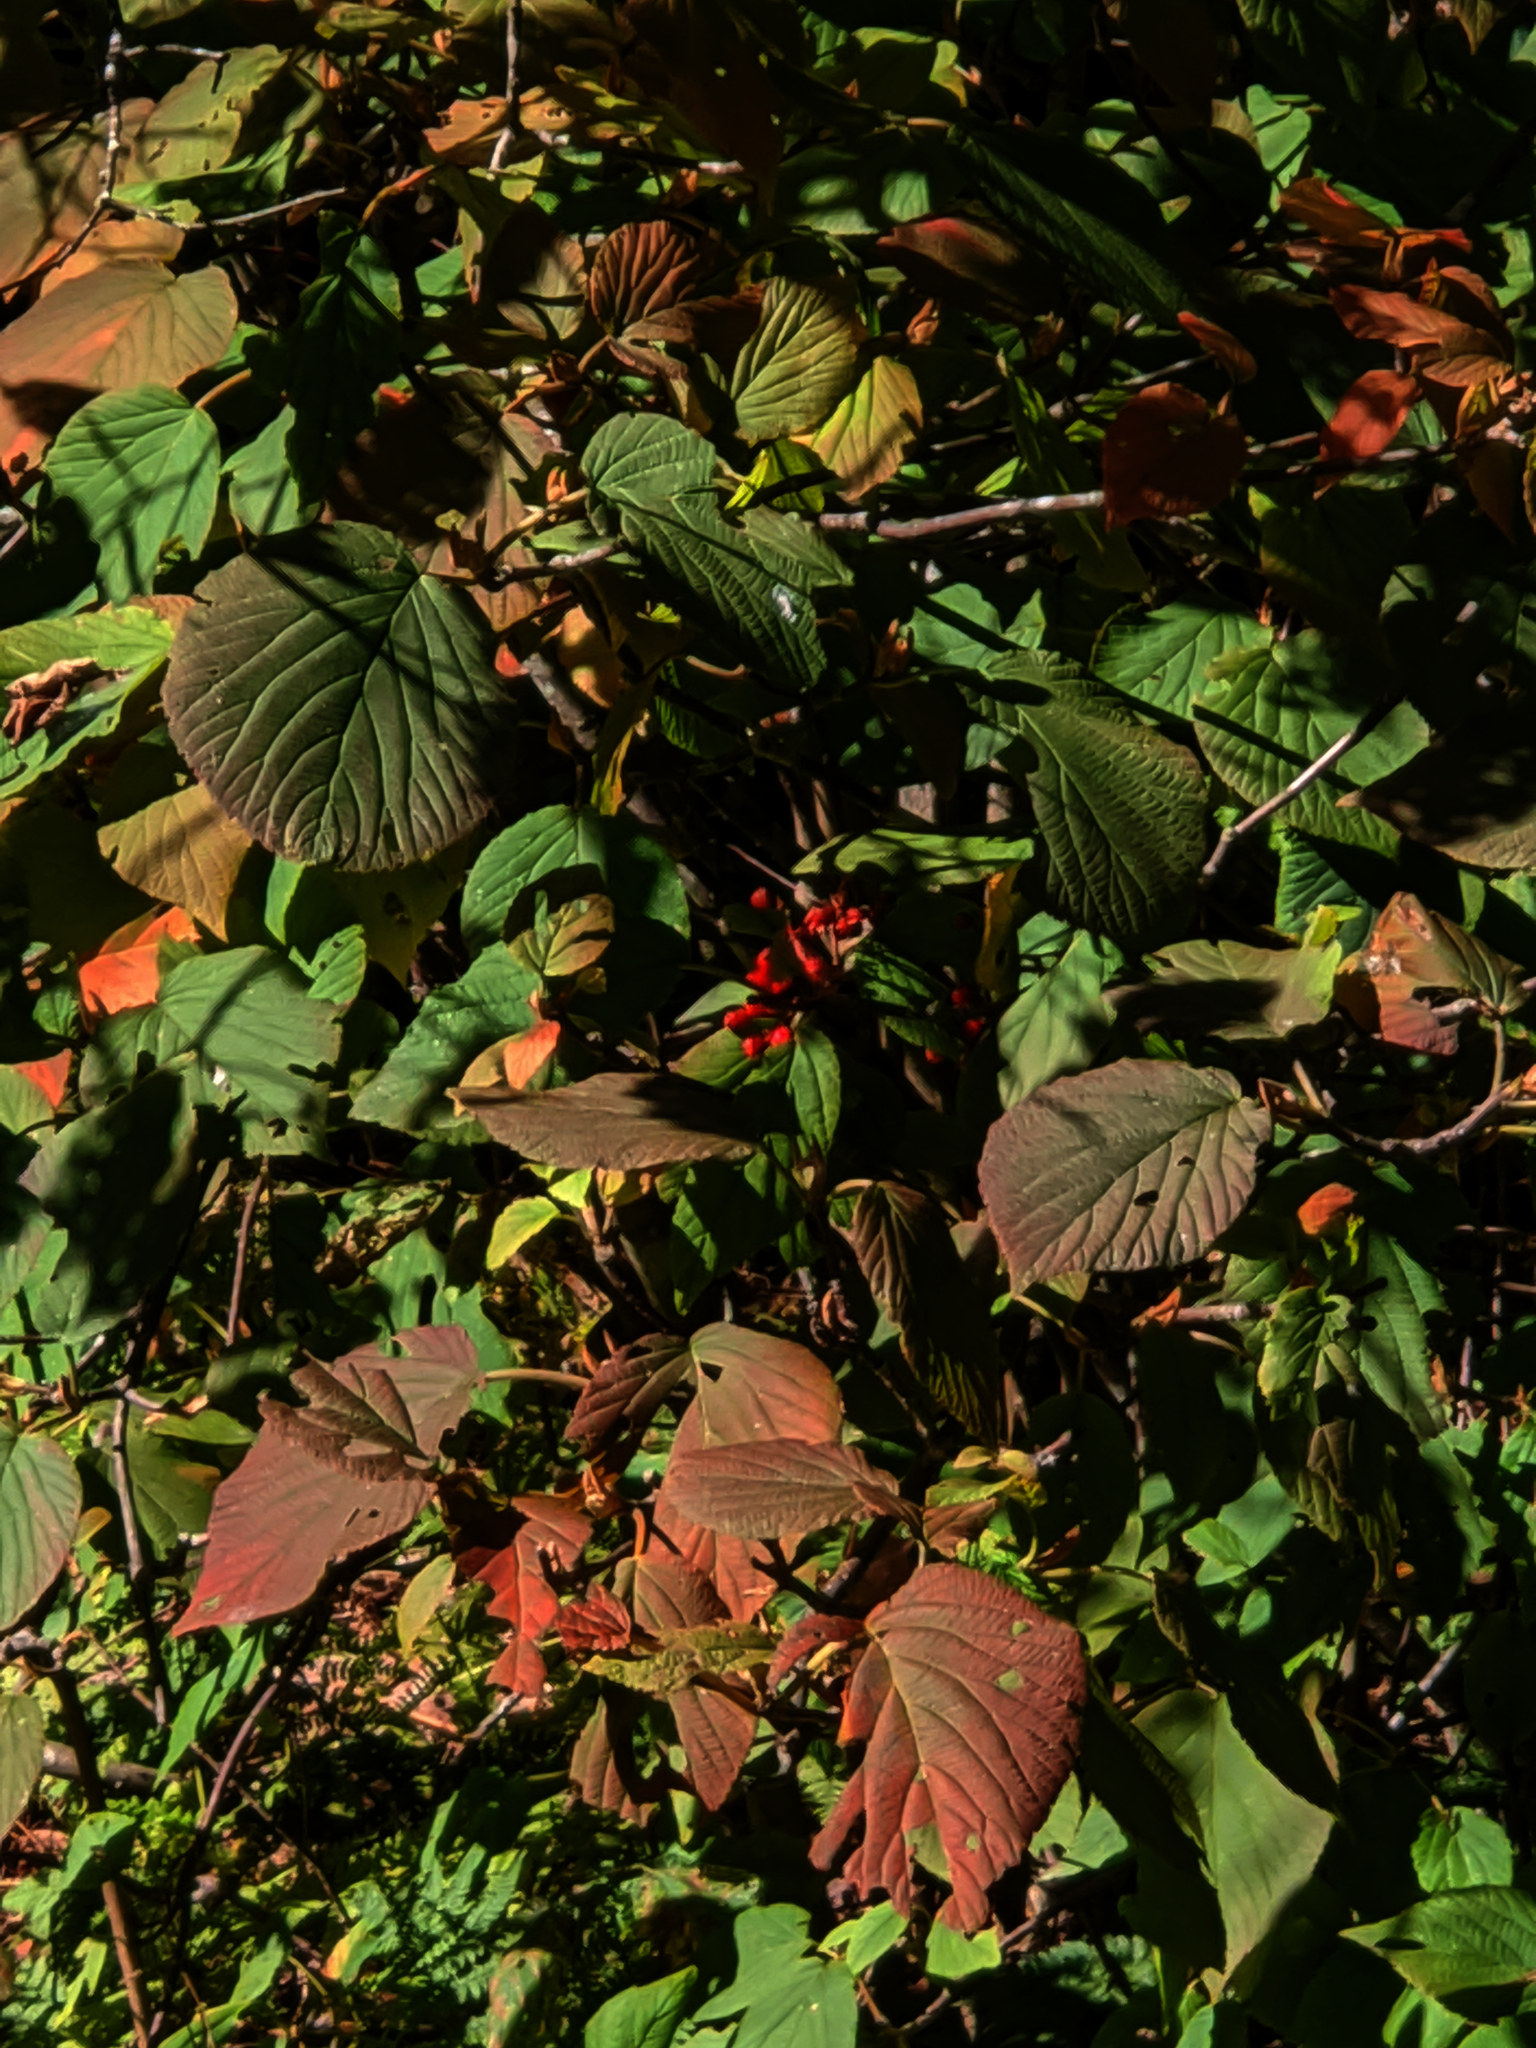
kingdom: Plantae
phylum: Tracheophyta
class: Magnoliopsida
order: Dipsacales
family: Viburnaceae
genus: Viburnum
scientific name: Viburnum lantanoides
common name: Hobblebush
